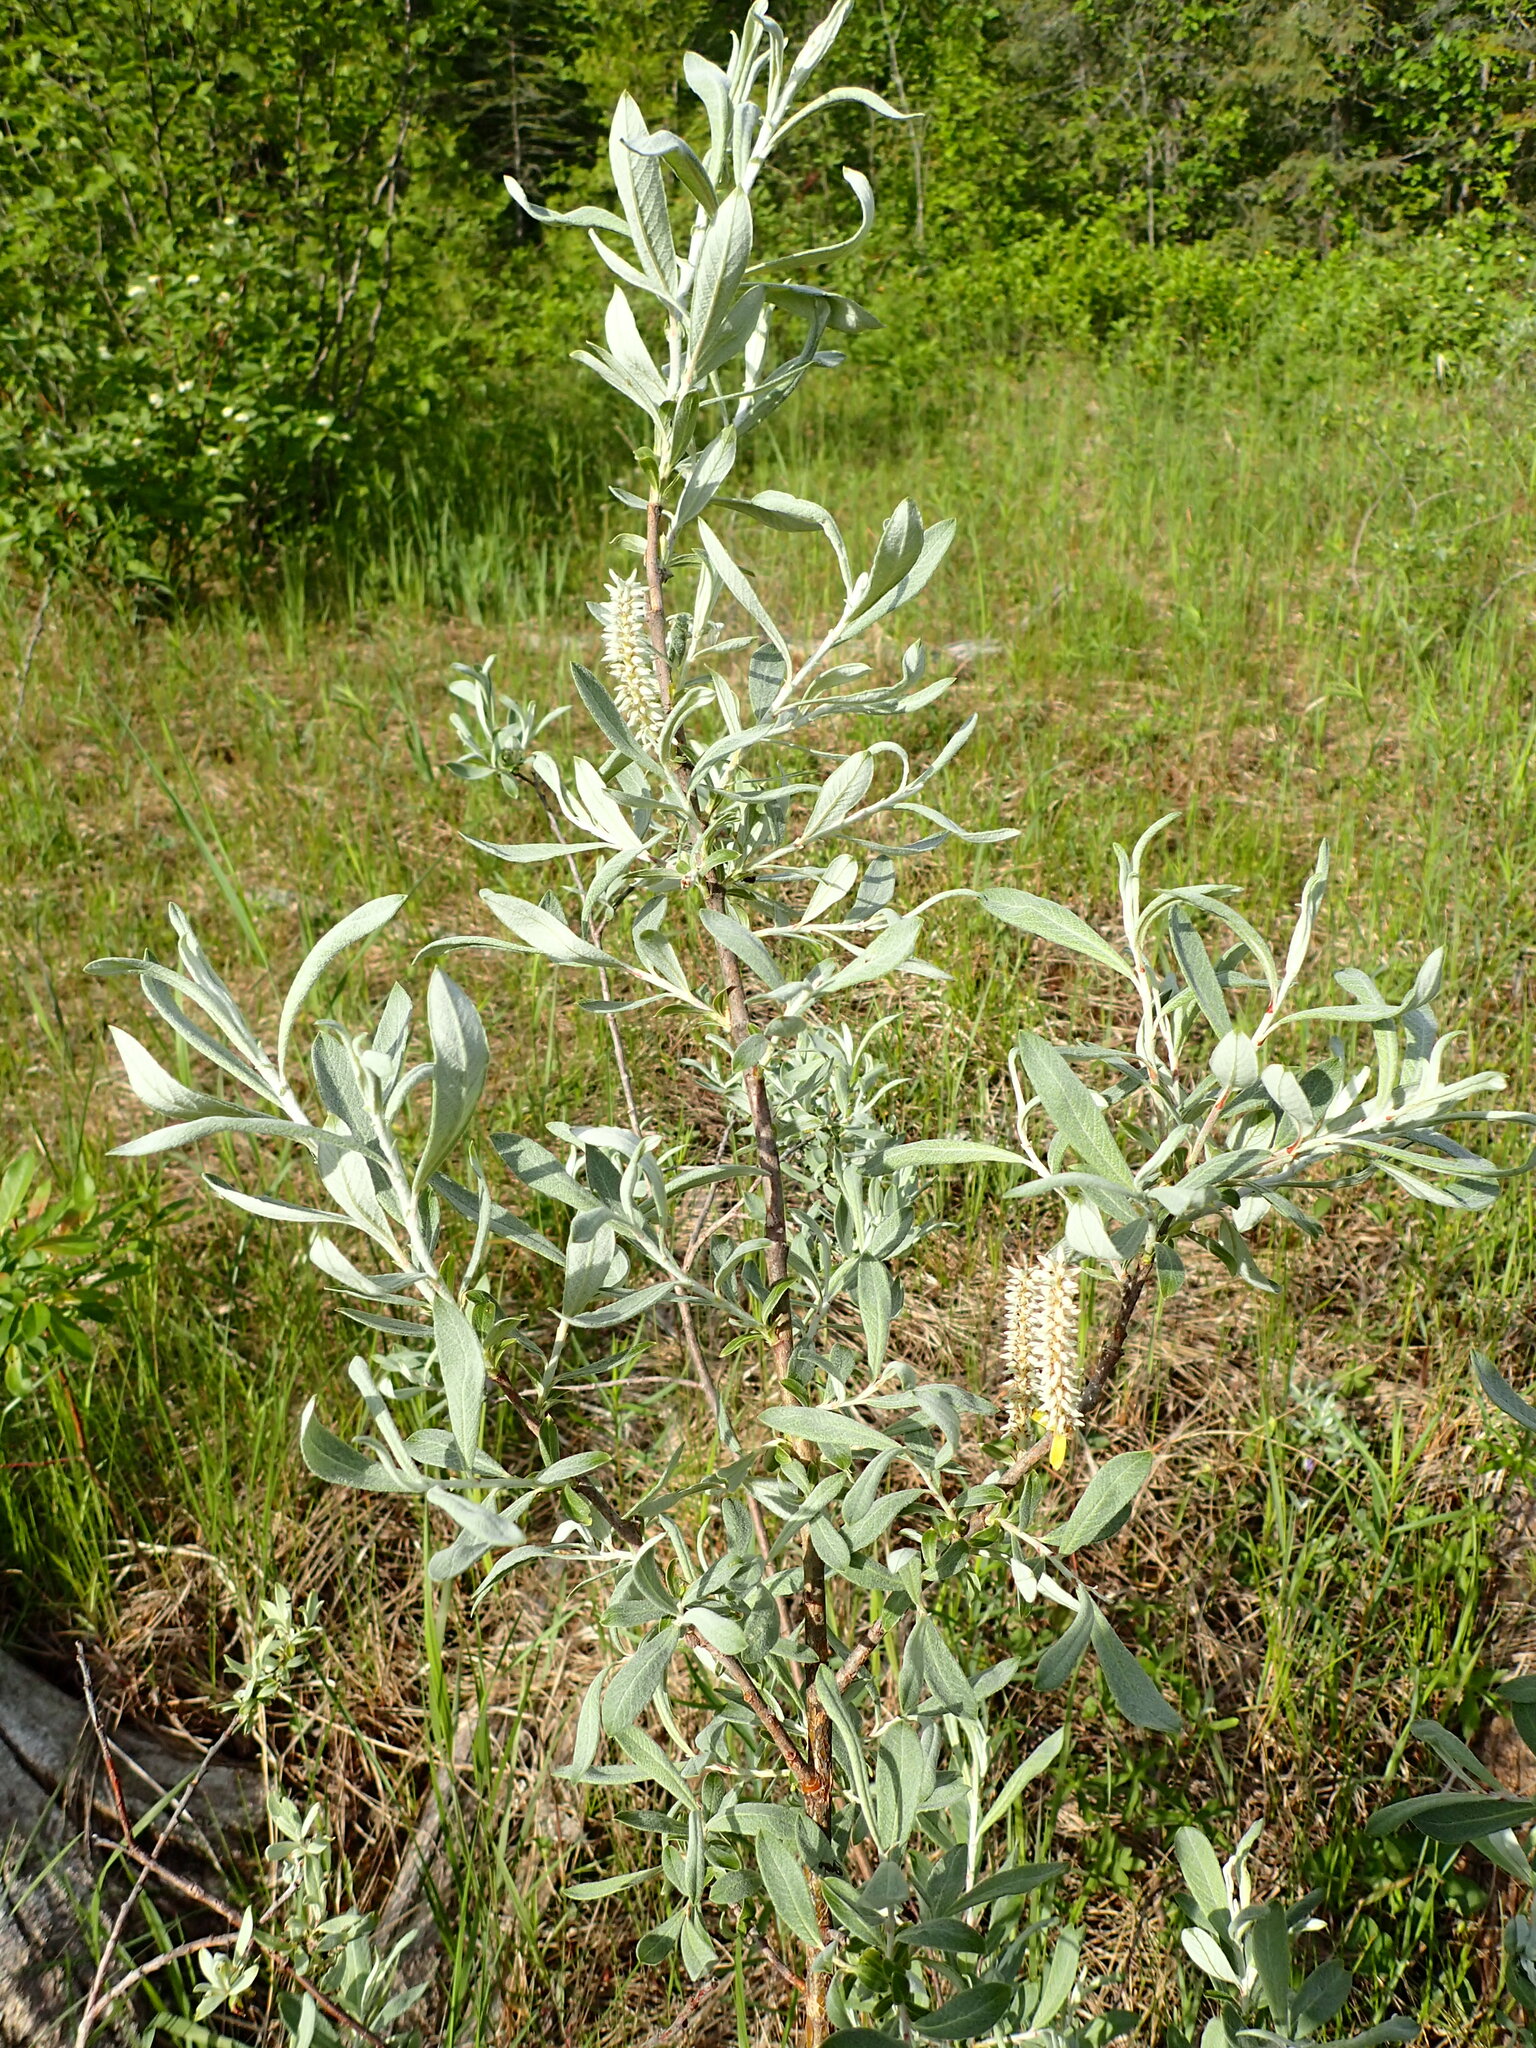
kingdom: Plantae
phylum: Tracheophyta
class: Magnoliopsida
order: Malpighiales
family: Salicaceae
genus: Salix
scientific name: Salix candida
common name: Hoary willow
